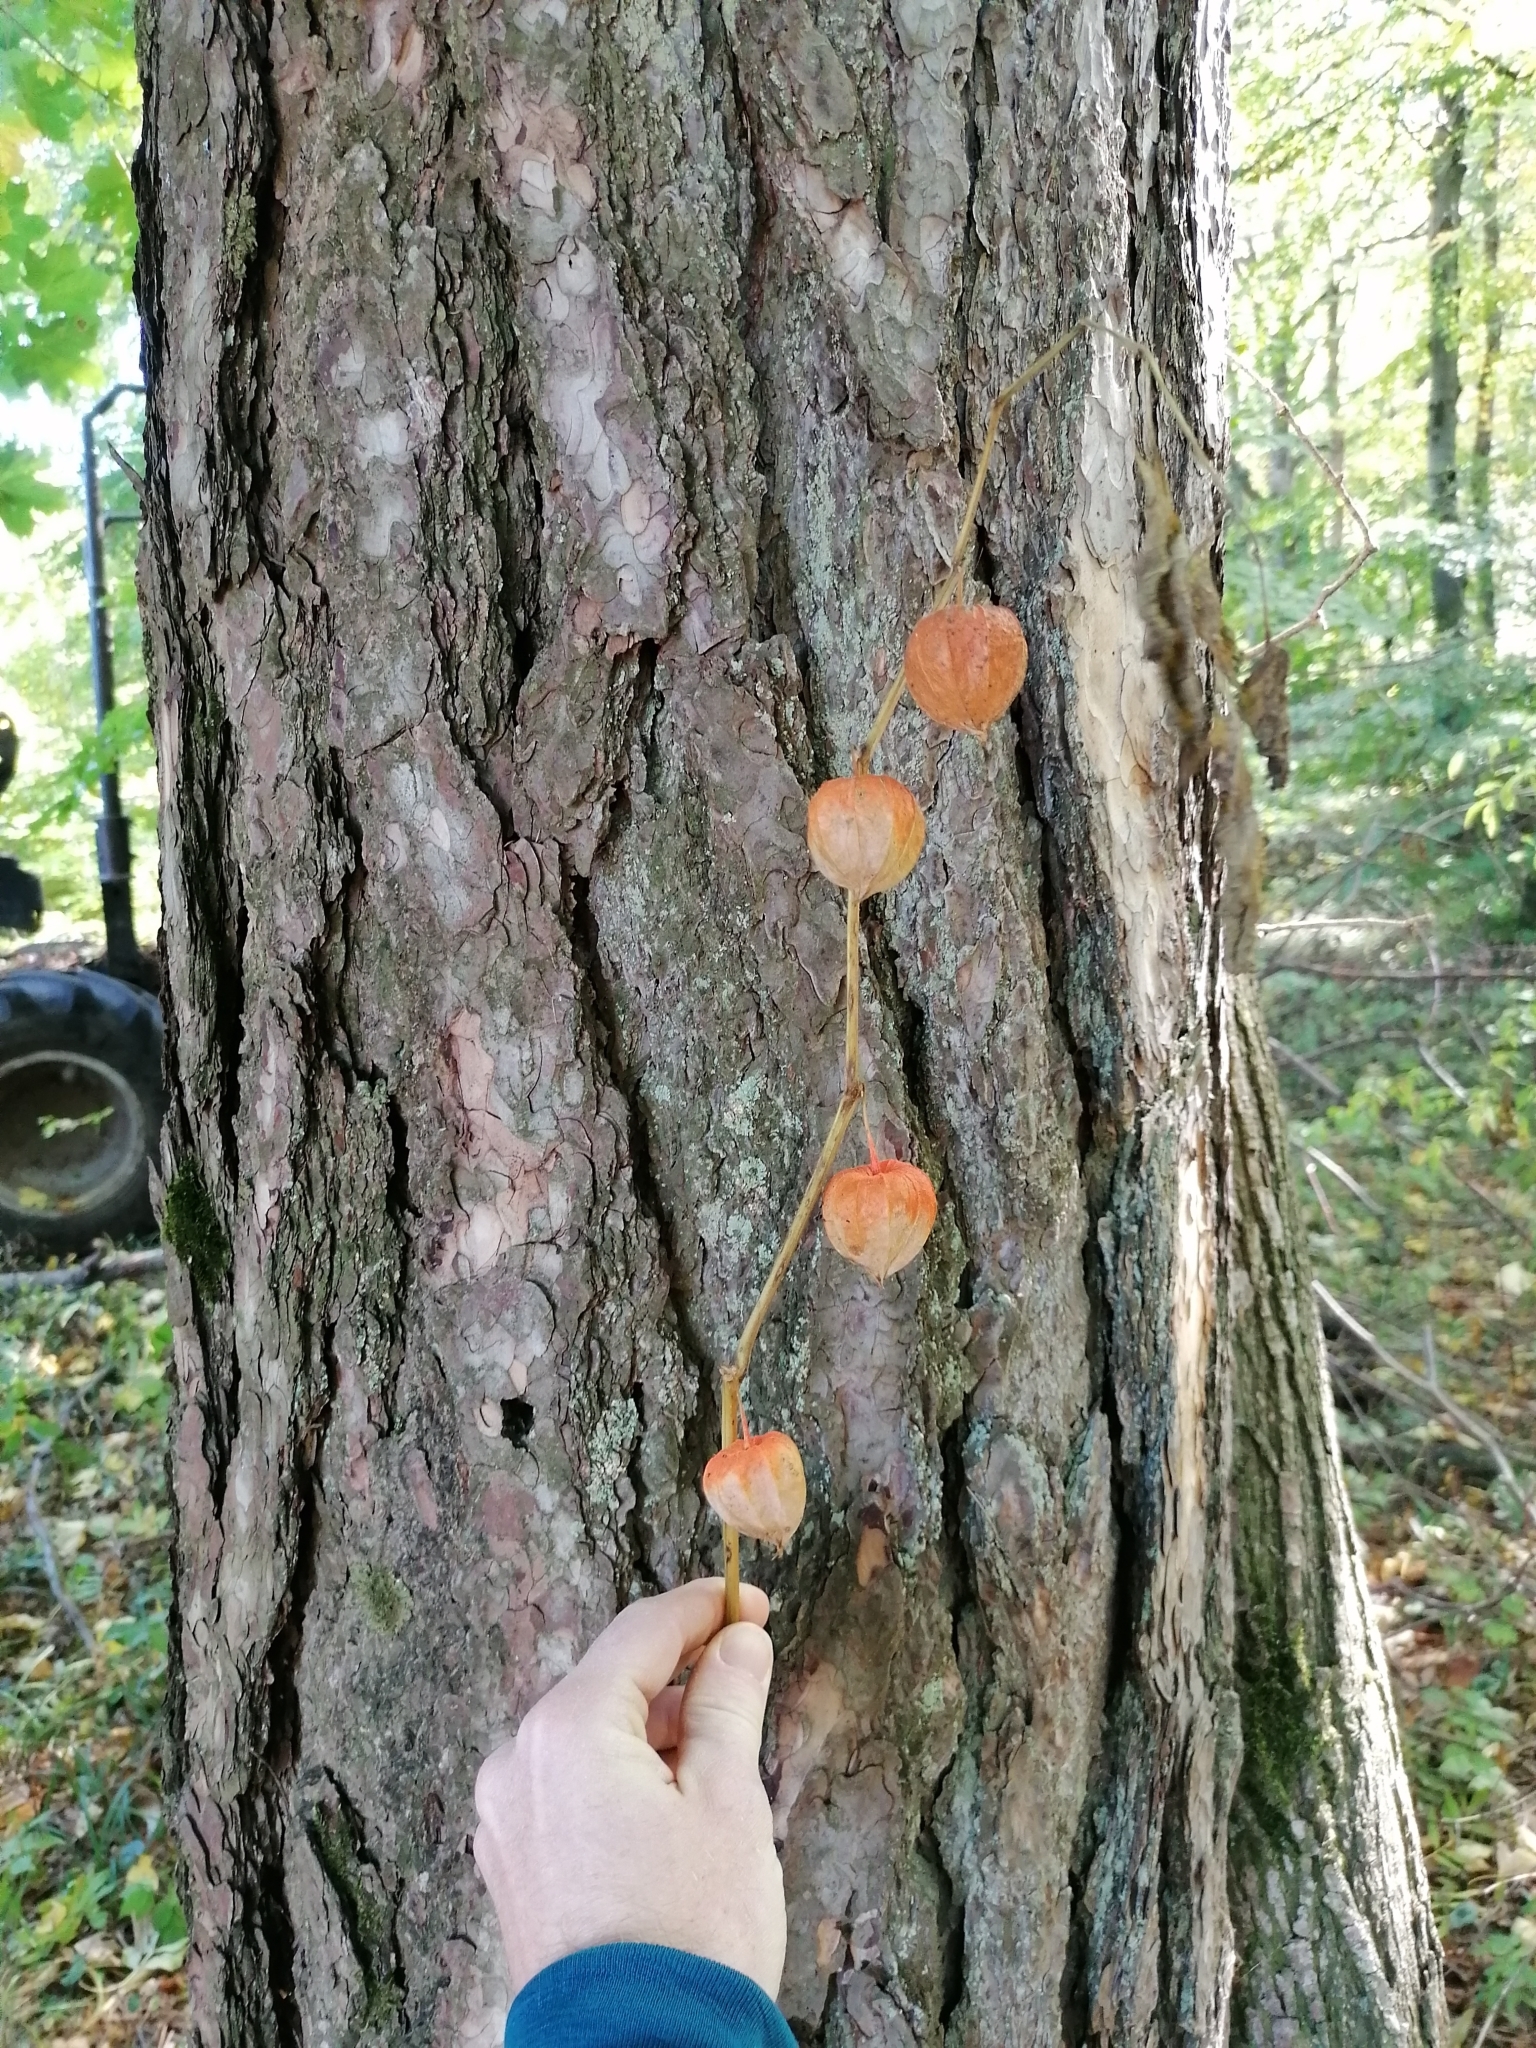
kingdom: Plantae
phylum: Tracheophyta
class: Magnoliopsida
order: Solanales
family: Solanaceae
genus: Alkekengi
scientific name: Alkekengi officinarum
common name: Japanese-lantern
